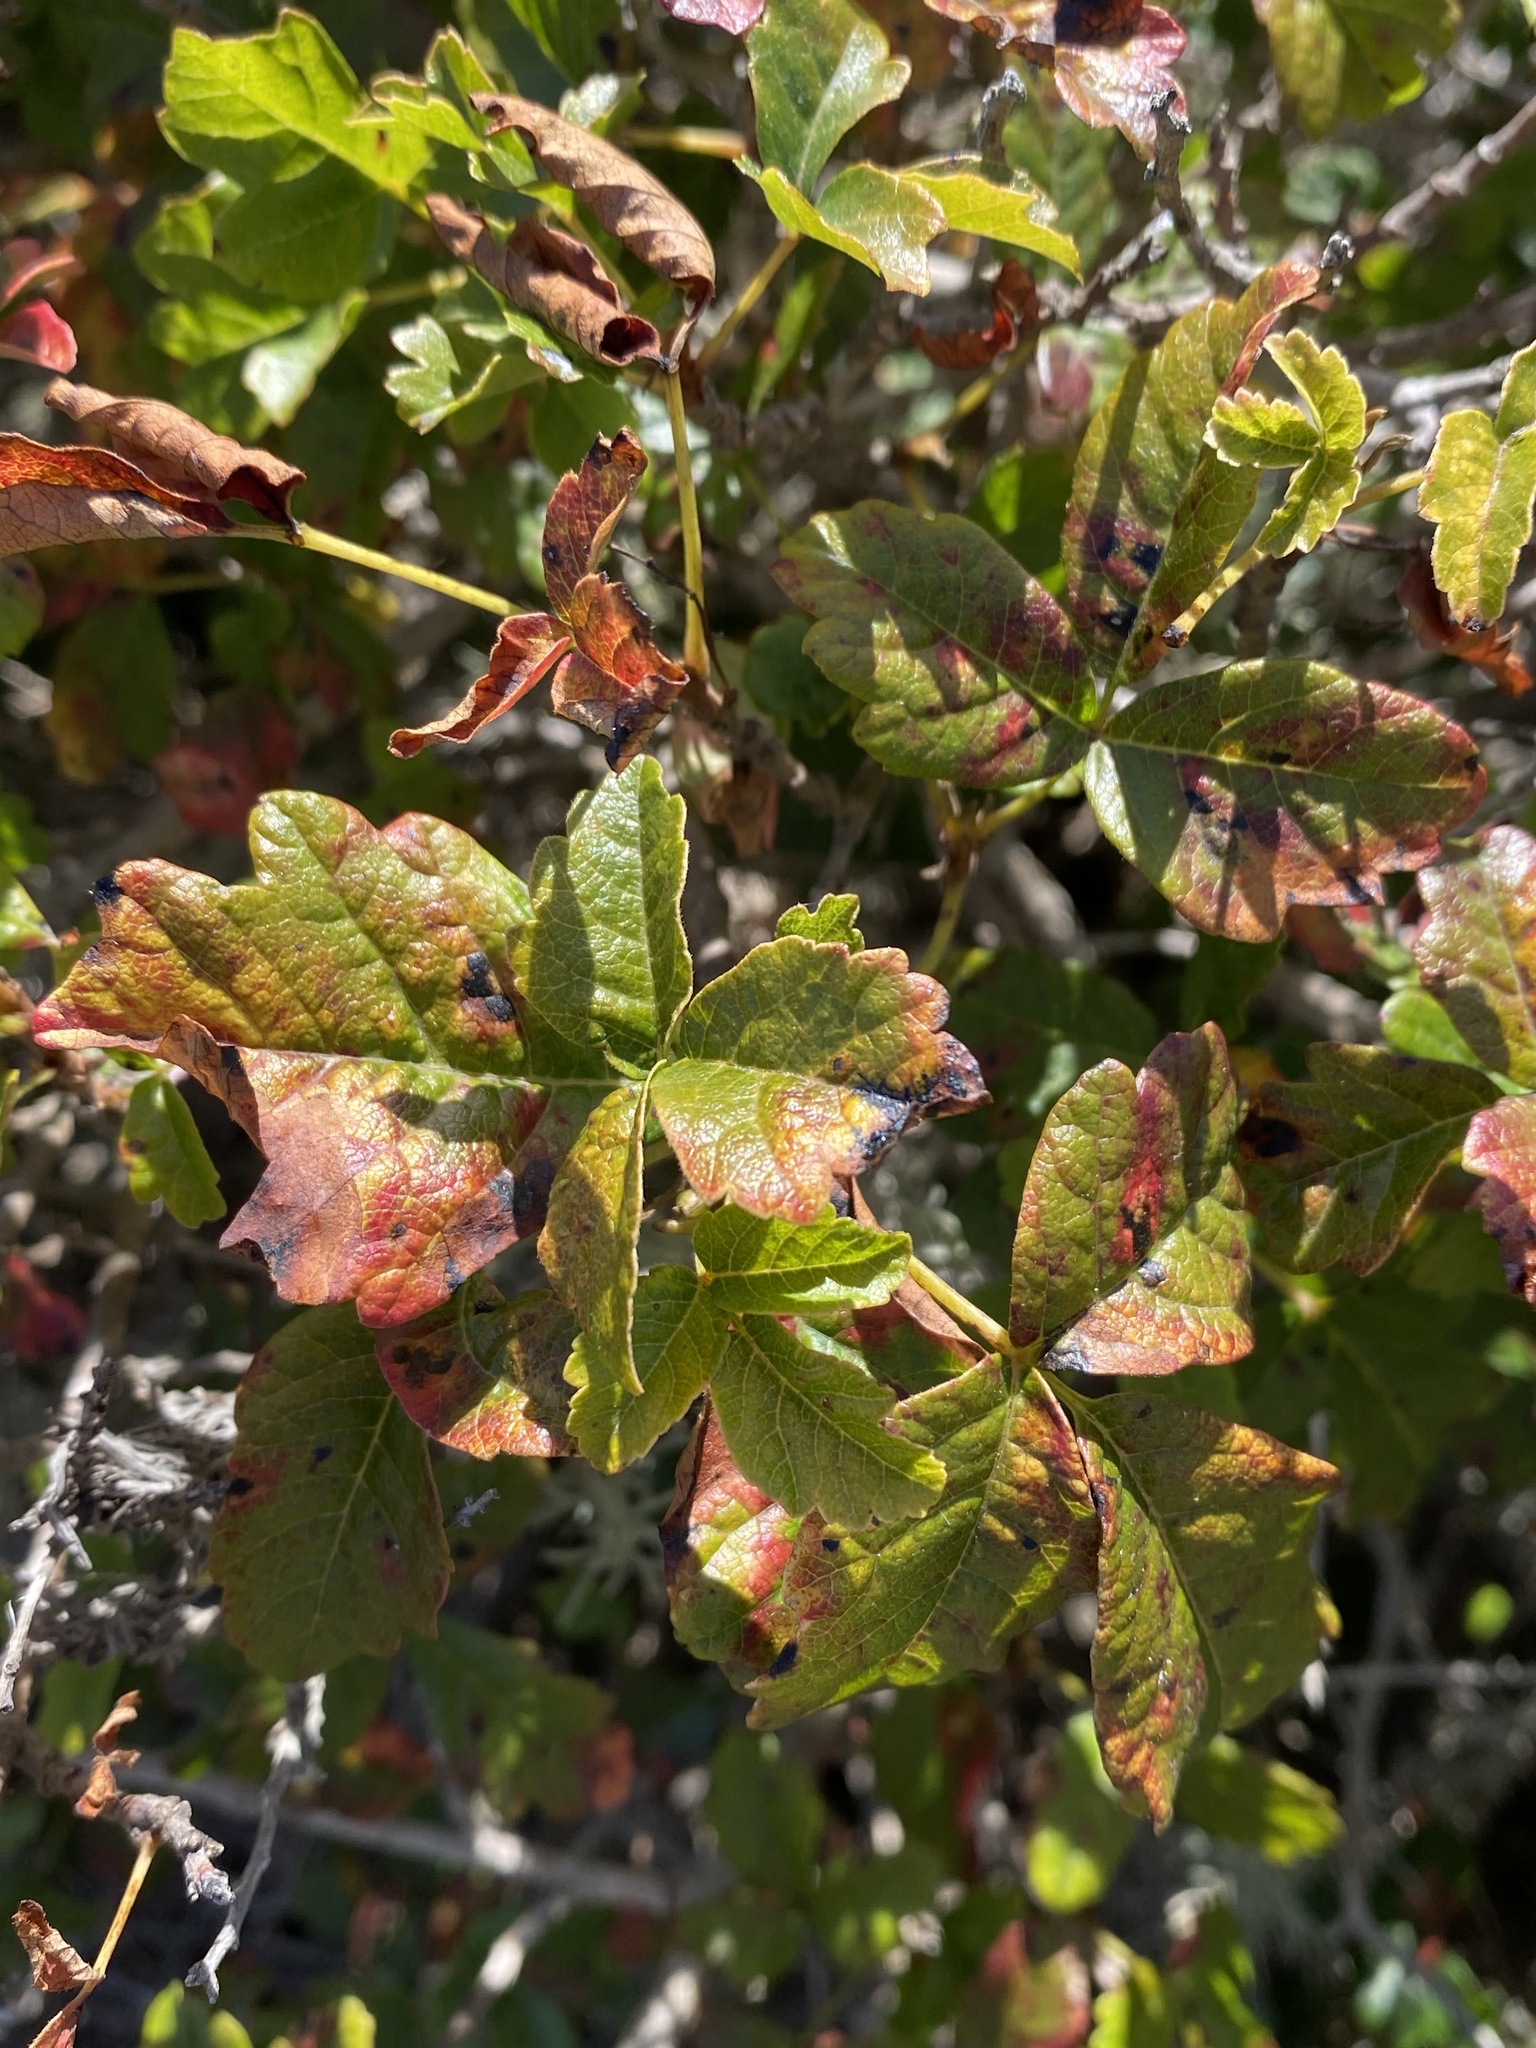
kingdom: Plantae
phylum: Tracheophyta
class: Magnoliopsida
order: Sapindales
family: Anacardiaceae
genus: Toxicodendron
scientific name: Toxicodendron diversilobum
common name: Pacific poison-oak
